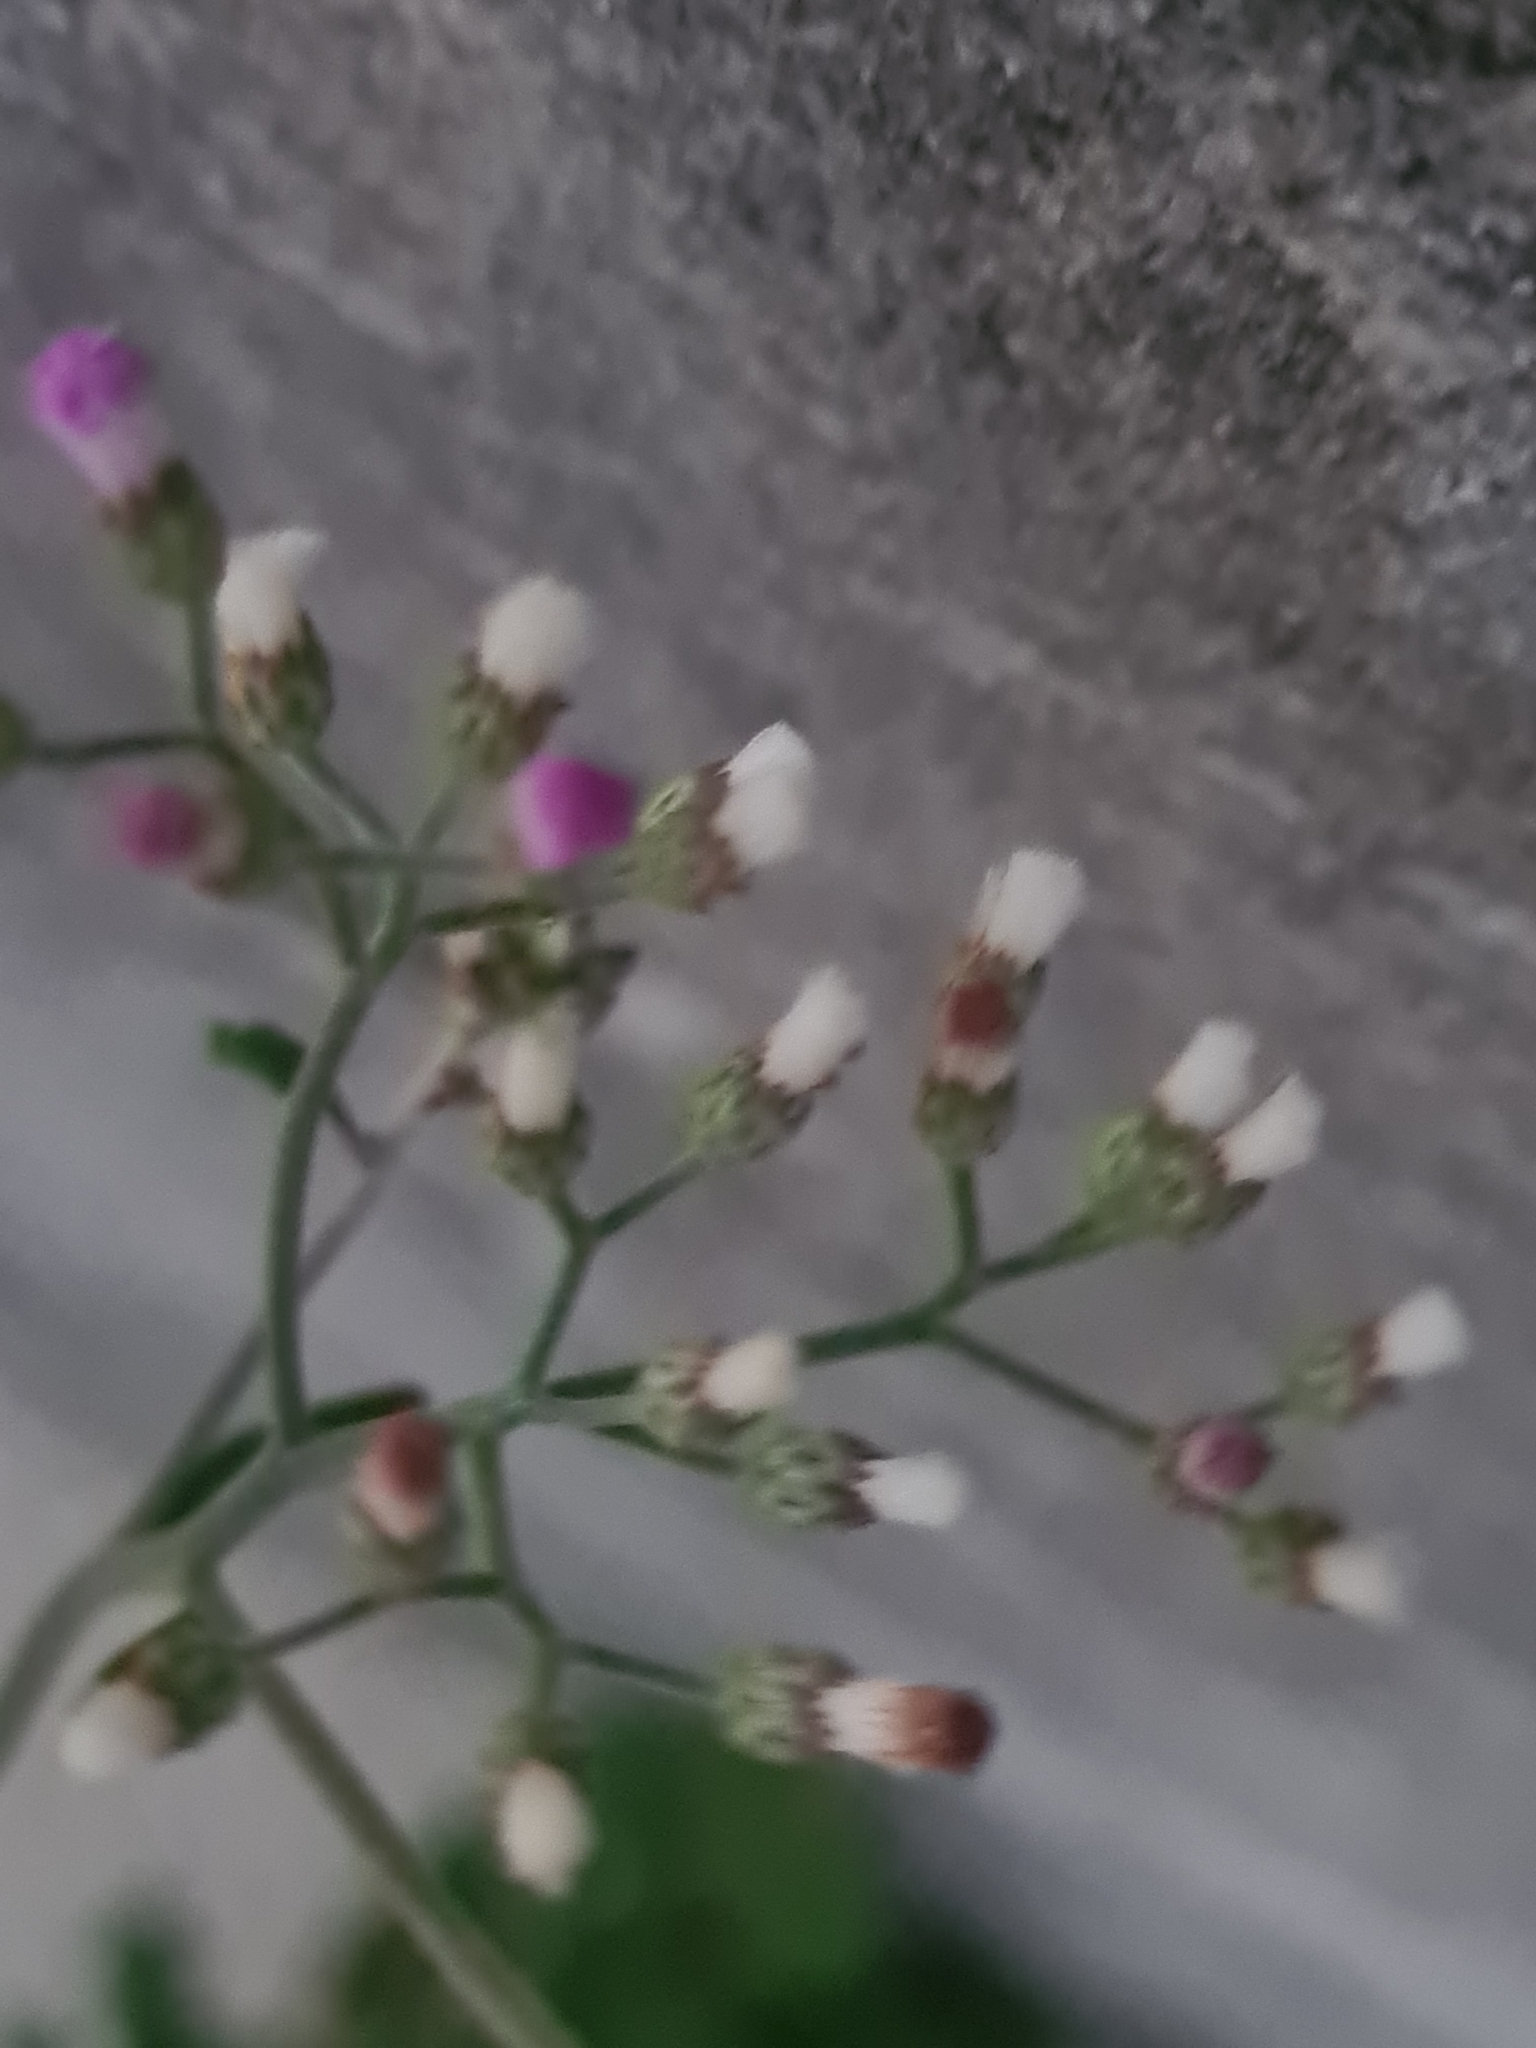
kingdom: Plantae
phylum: Tracheophyta
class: Magnoliopsida
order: Asterales
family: Asteraceae
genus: Cyanthillium
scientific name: Cyanthillium cinereum
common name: Little ironweed
